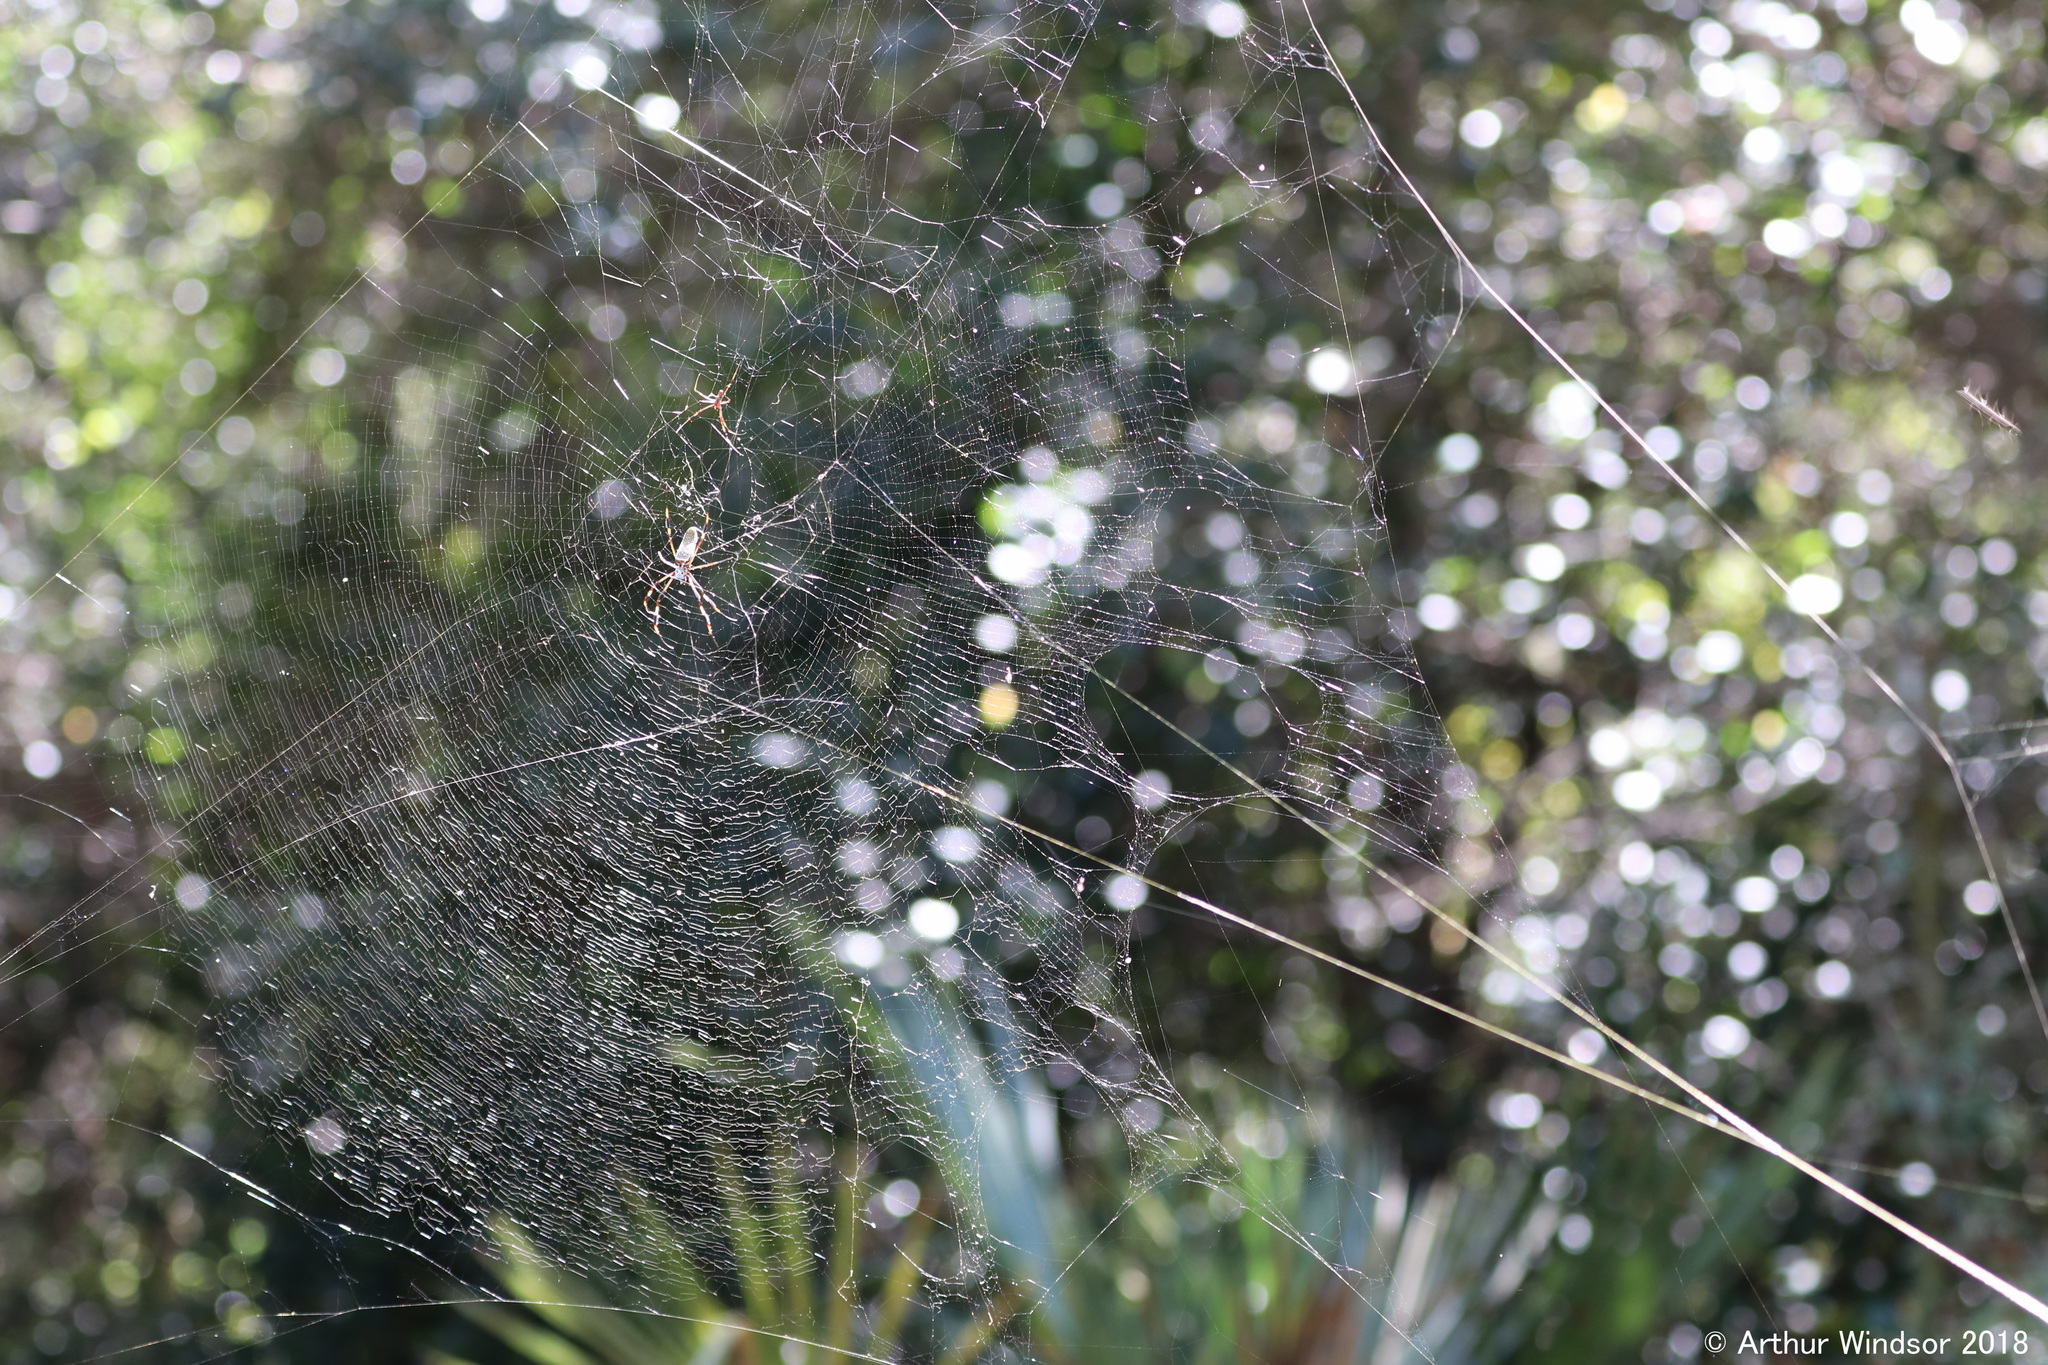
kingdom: Animalia
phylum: Arthropoda
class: Arachnida
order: Araneae
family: Araneidae
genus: Trichonephila
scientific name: Trichonephila clavipes
